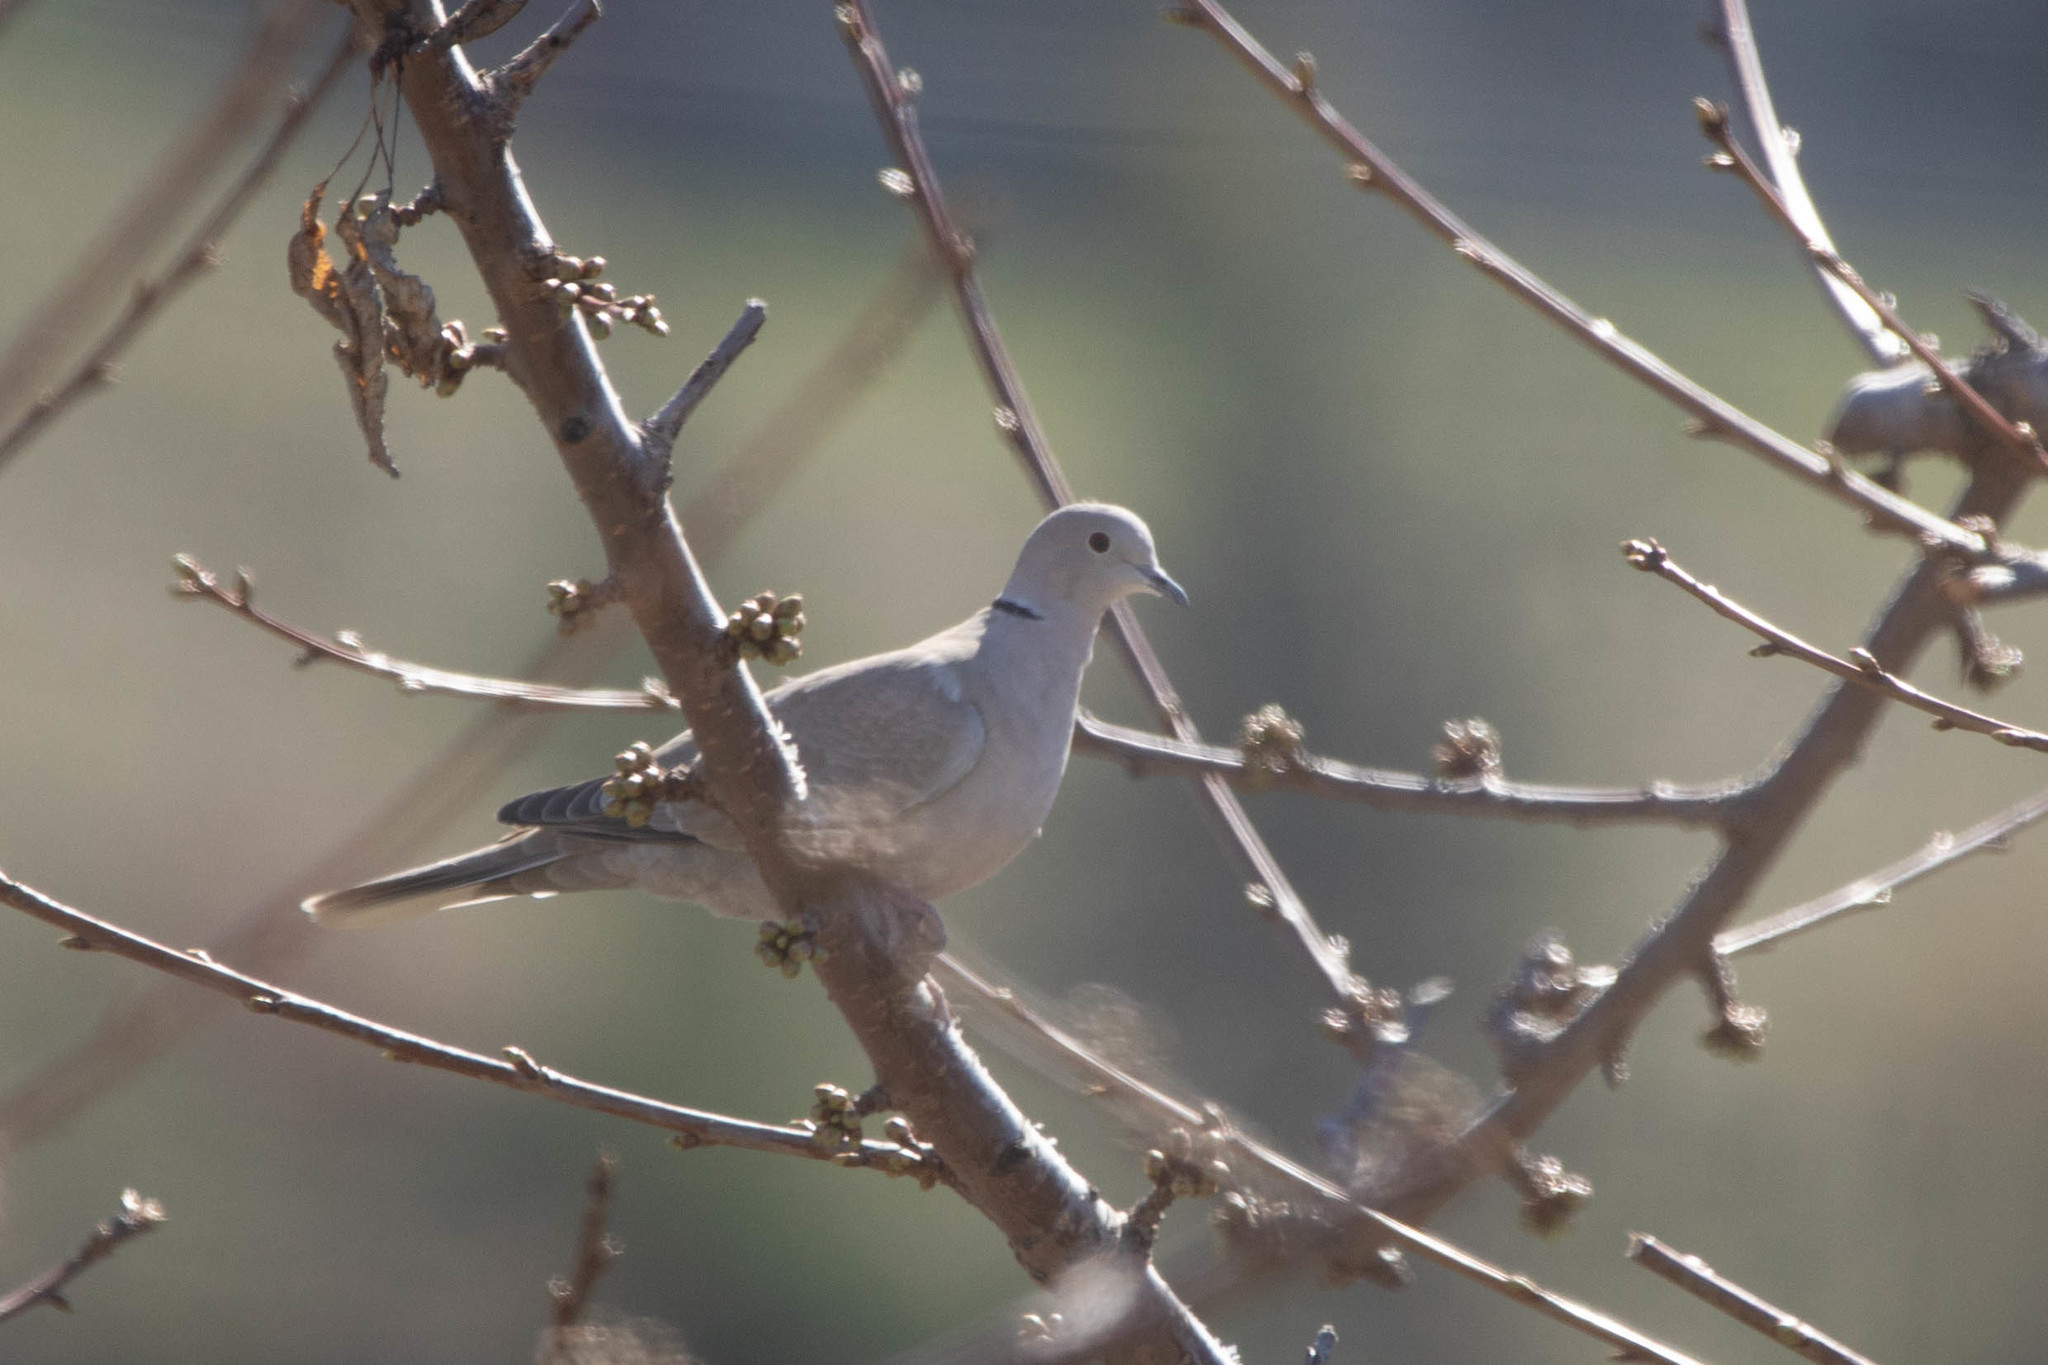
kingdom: Animalia
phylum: Chordata
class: Aves
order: Columbiformes
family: Columbidae
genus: Streptopelia
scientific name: Streptopelia decaocto
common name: Eurasian collared dove
